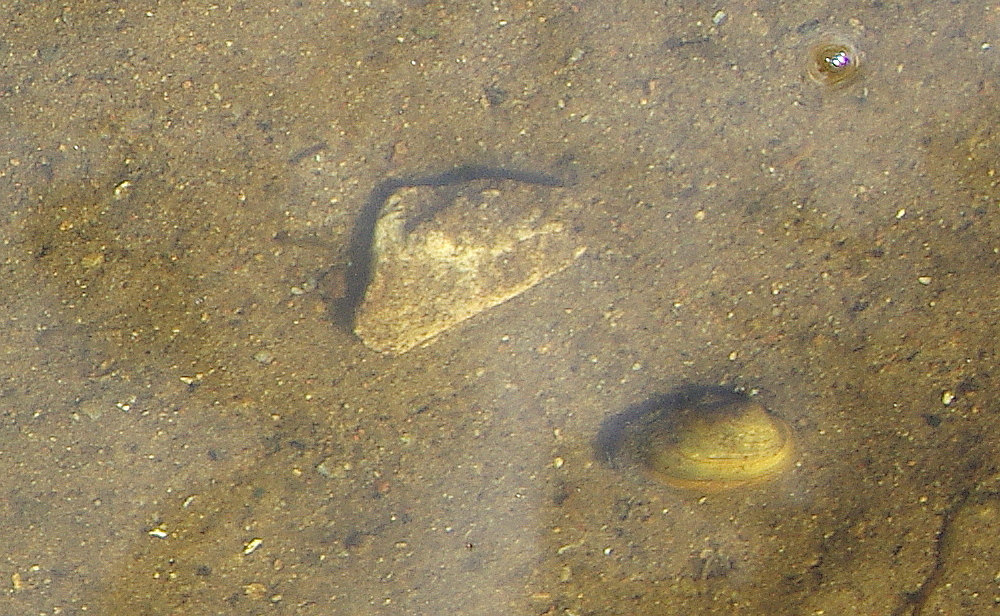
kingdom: Animalia
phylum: Mollusca
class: Bivalvia
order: Unionida
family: Unionidae
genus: Unio
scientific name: Unio crassus
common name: Thick shelled river mussel
